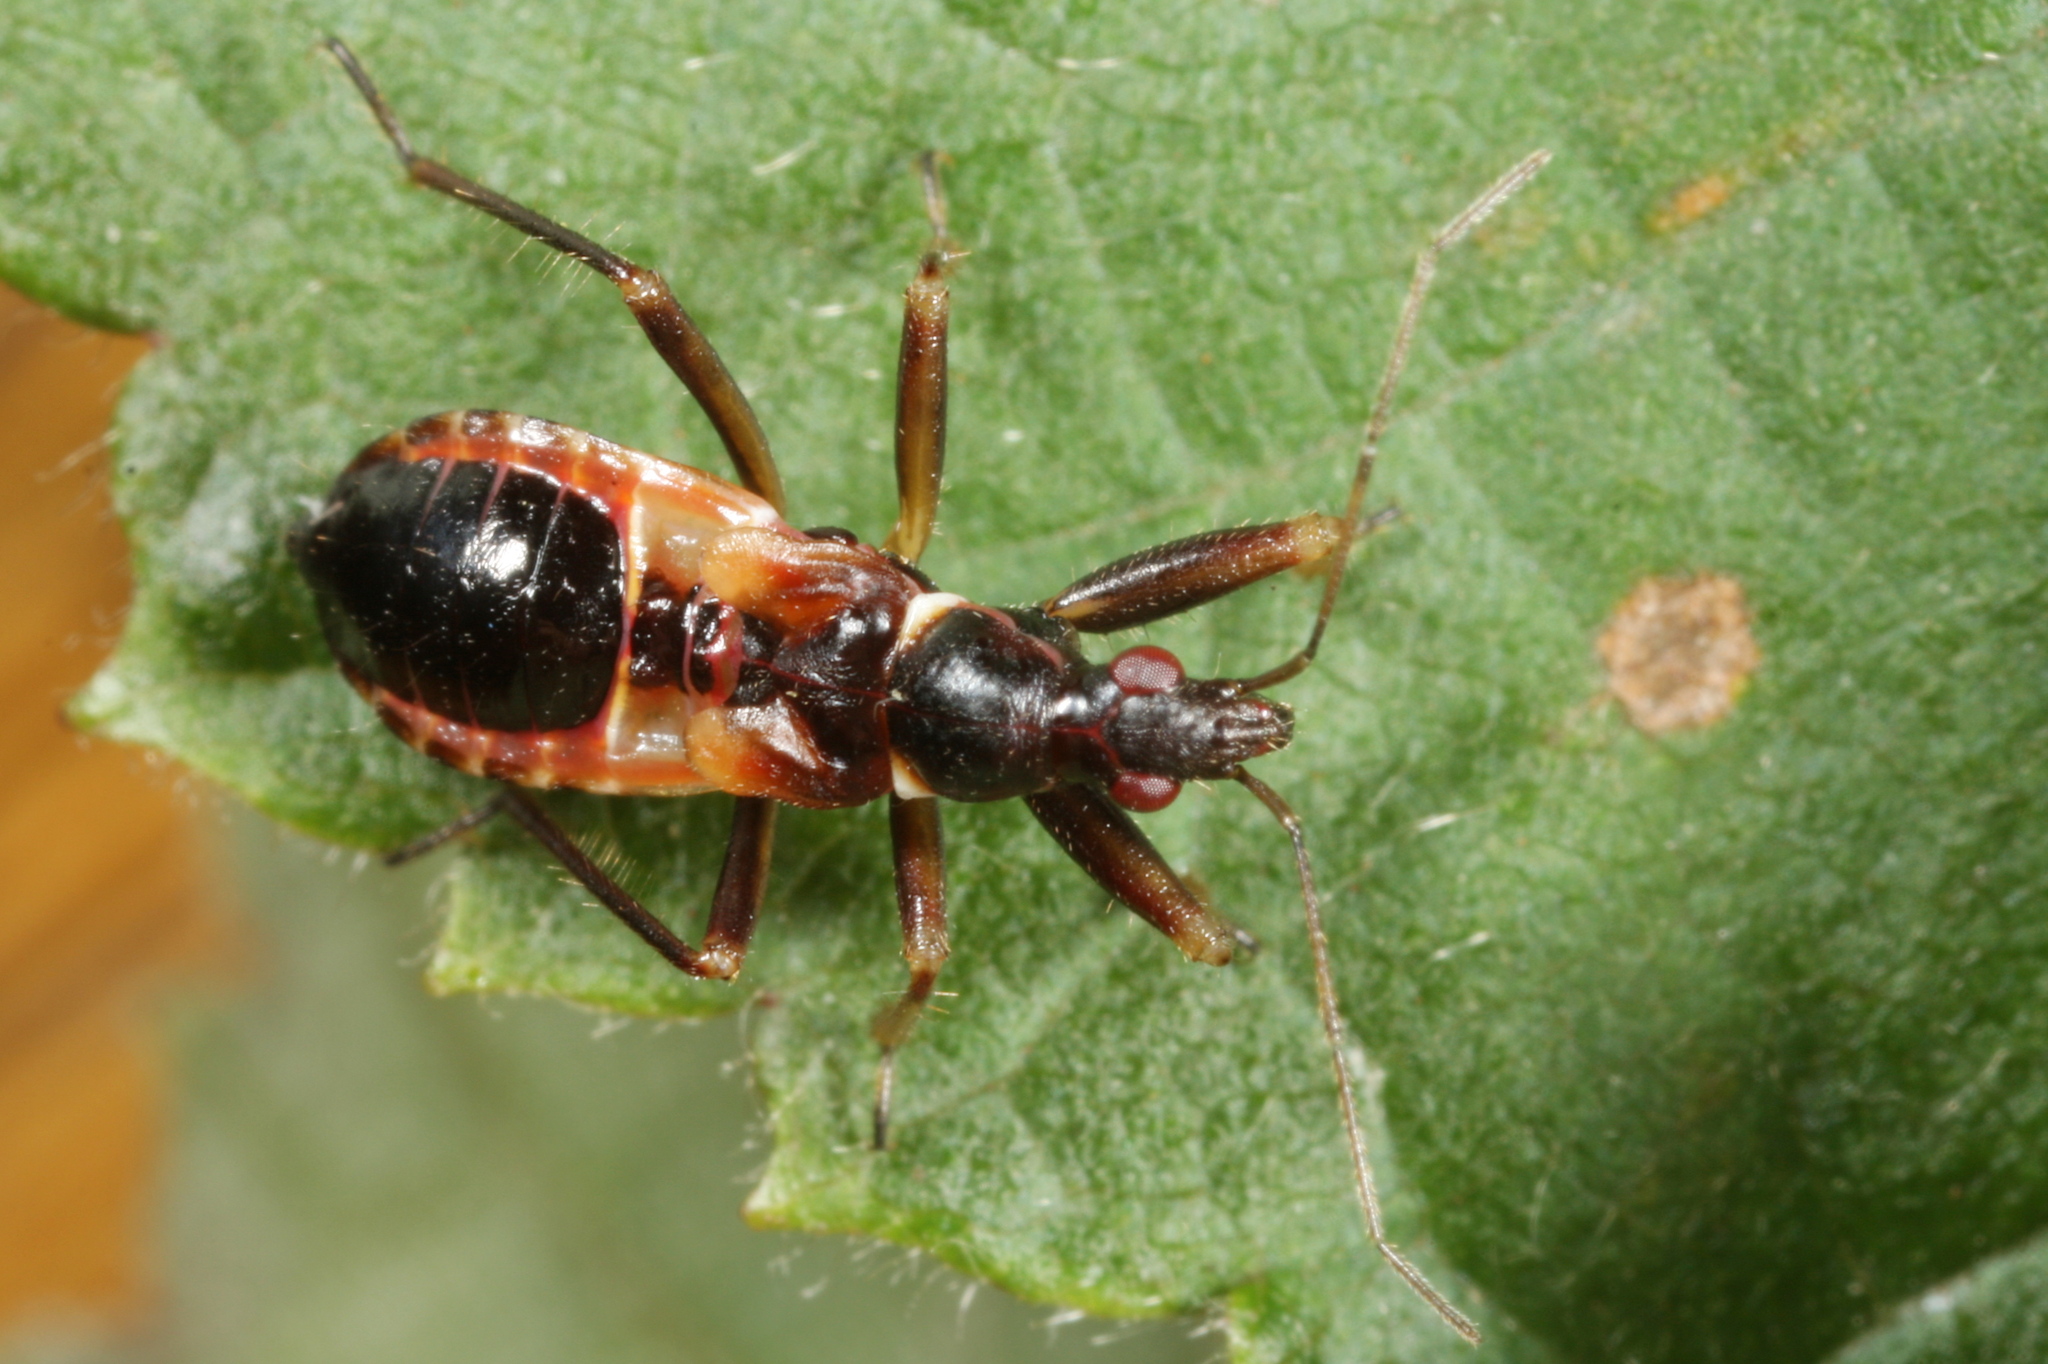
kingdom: Animalia
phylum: Arthropoda
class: Insecta
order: Hemiptera
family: Nabidae
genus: Himacerus
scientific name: Himacerus mirmicoides
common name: Ant damsel bug
